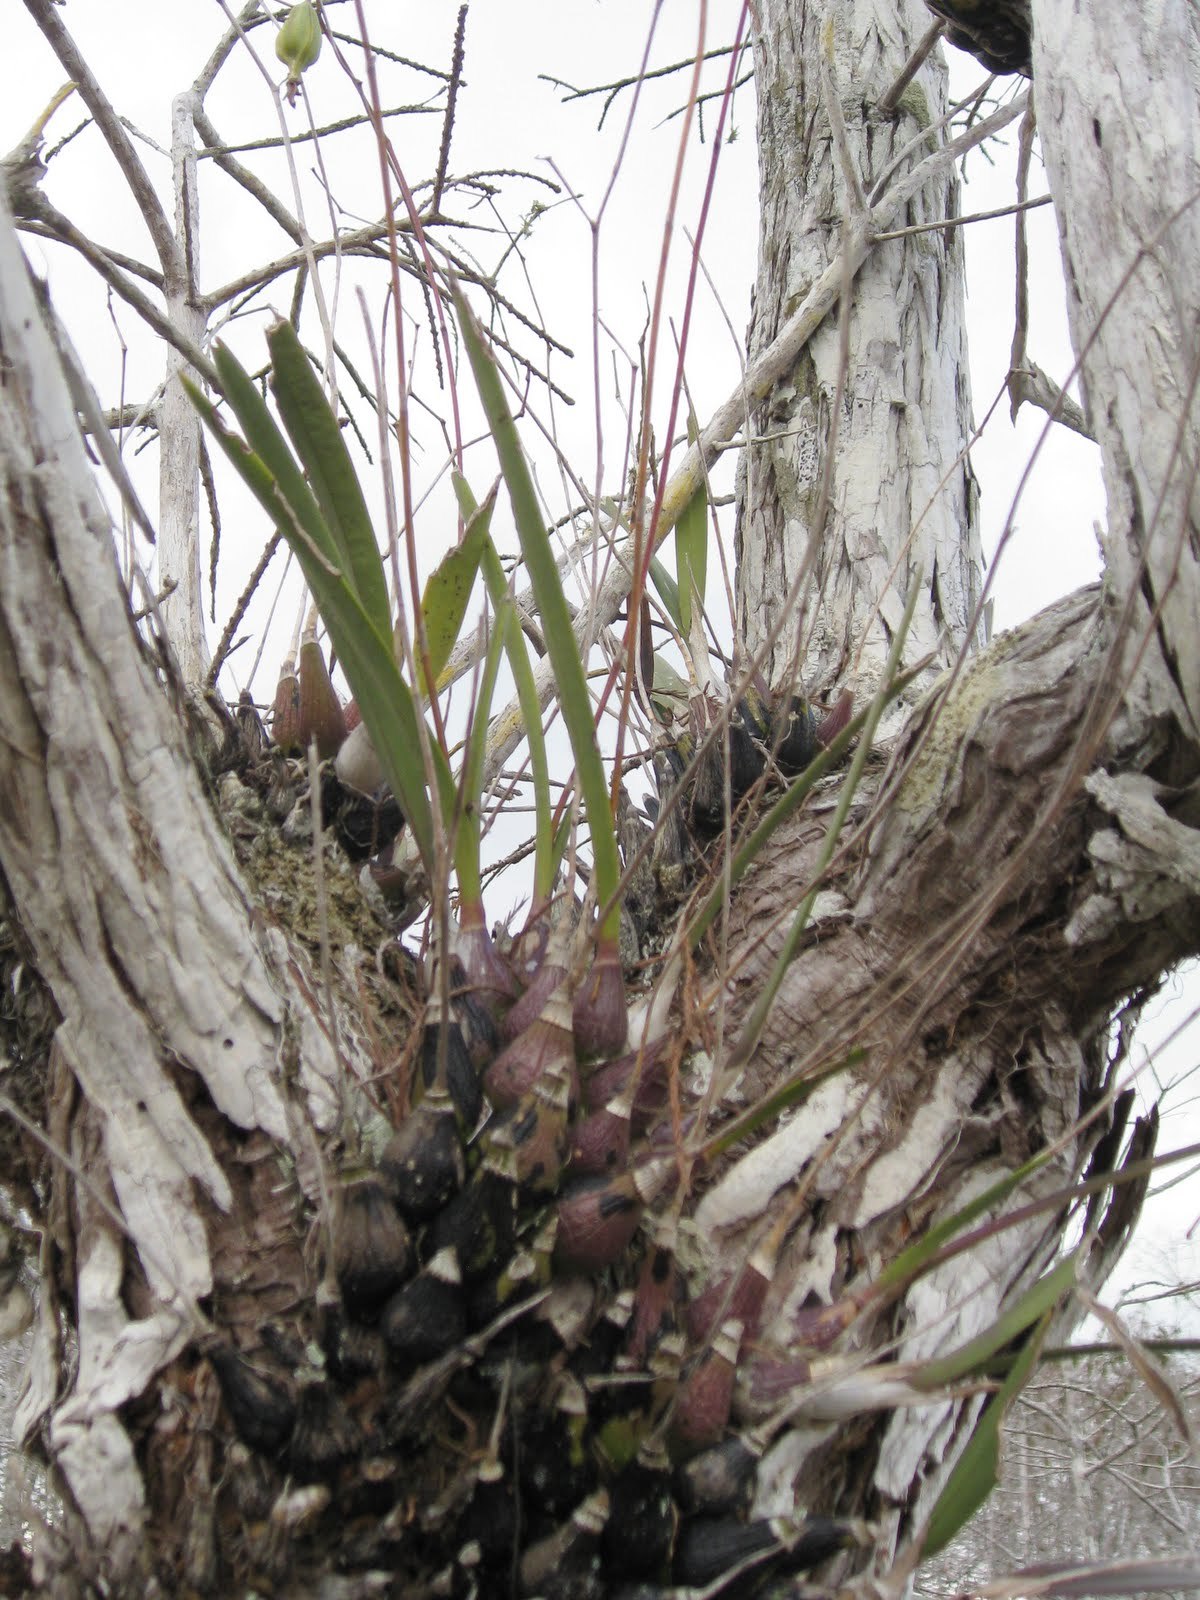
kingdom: Plantae
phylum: Tracheophyta
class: Liliopsida
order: Asparagales
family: Orchidaceae
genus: Encyclia
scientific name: Encyclia tampensis
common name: Florida butterfly orchid
